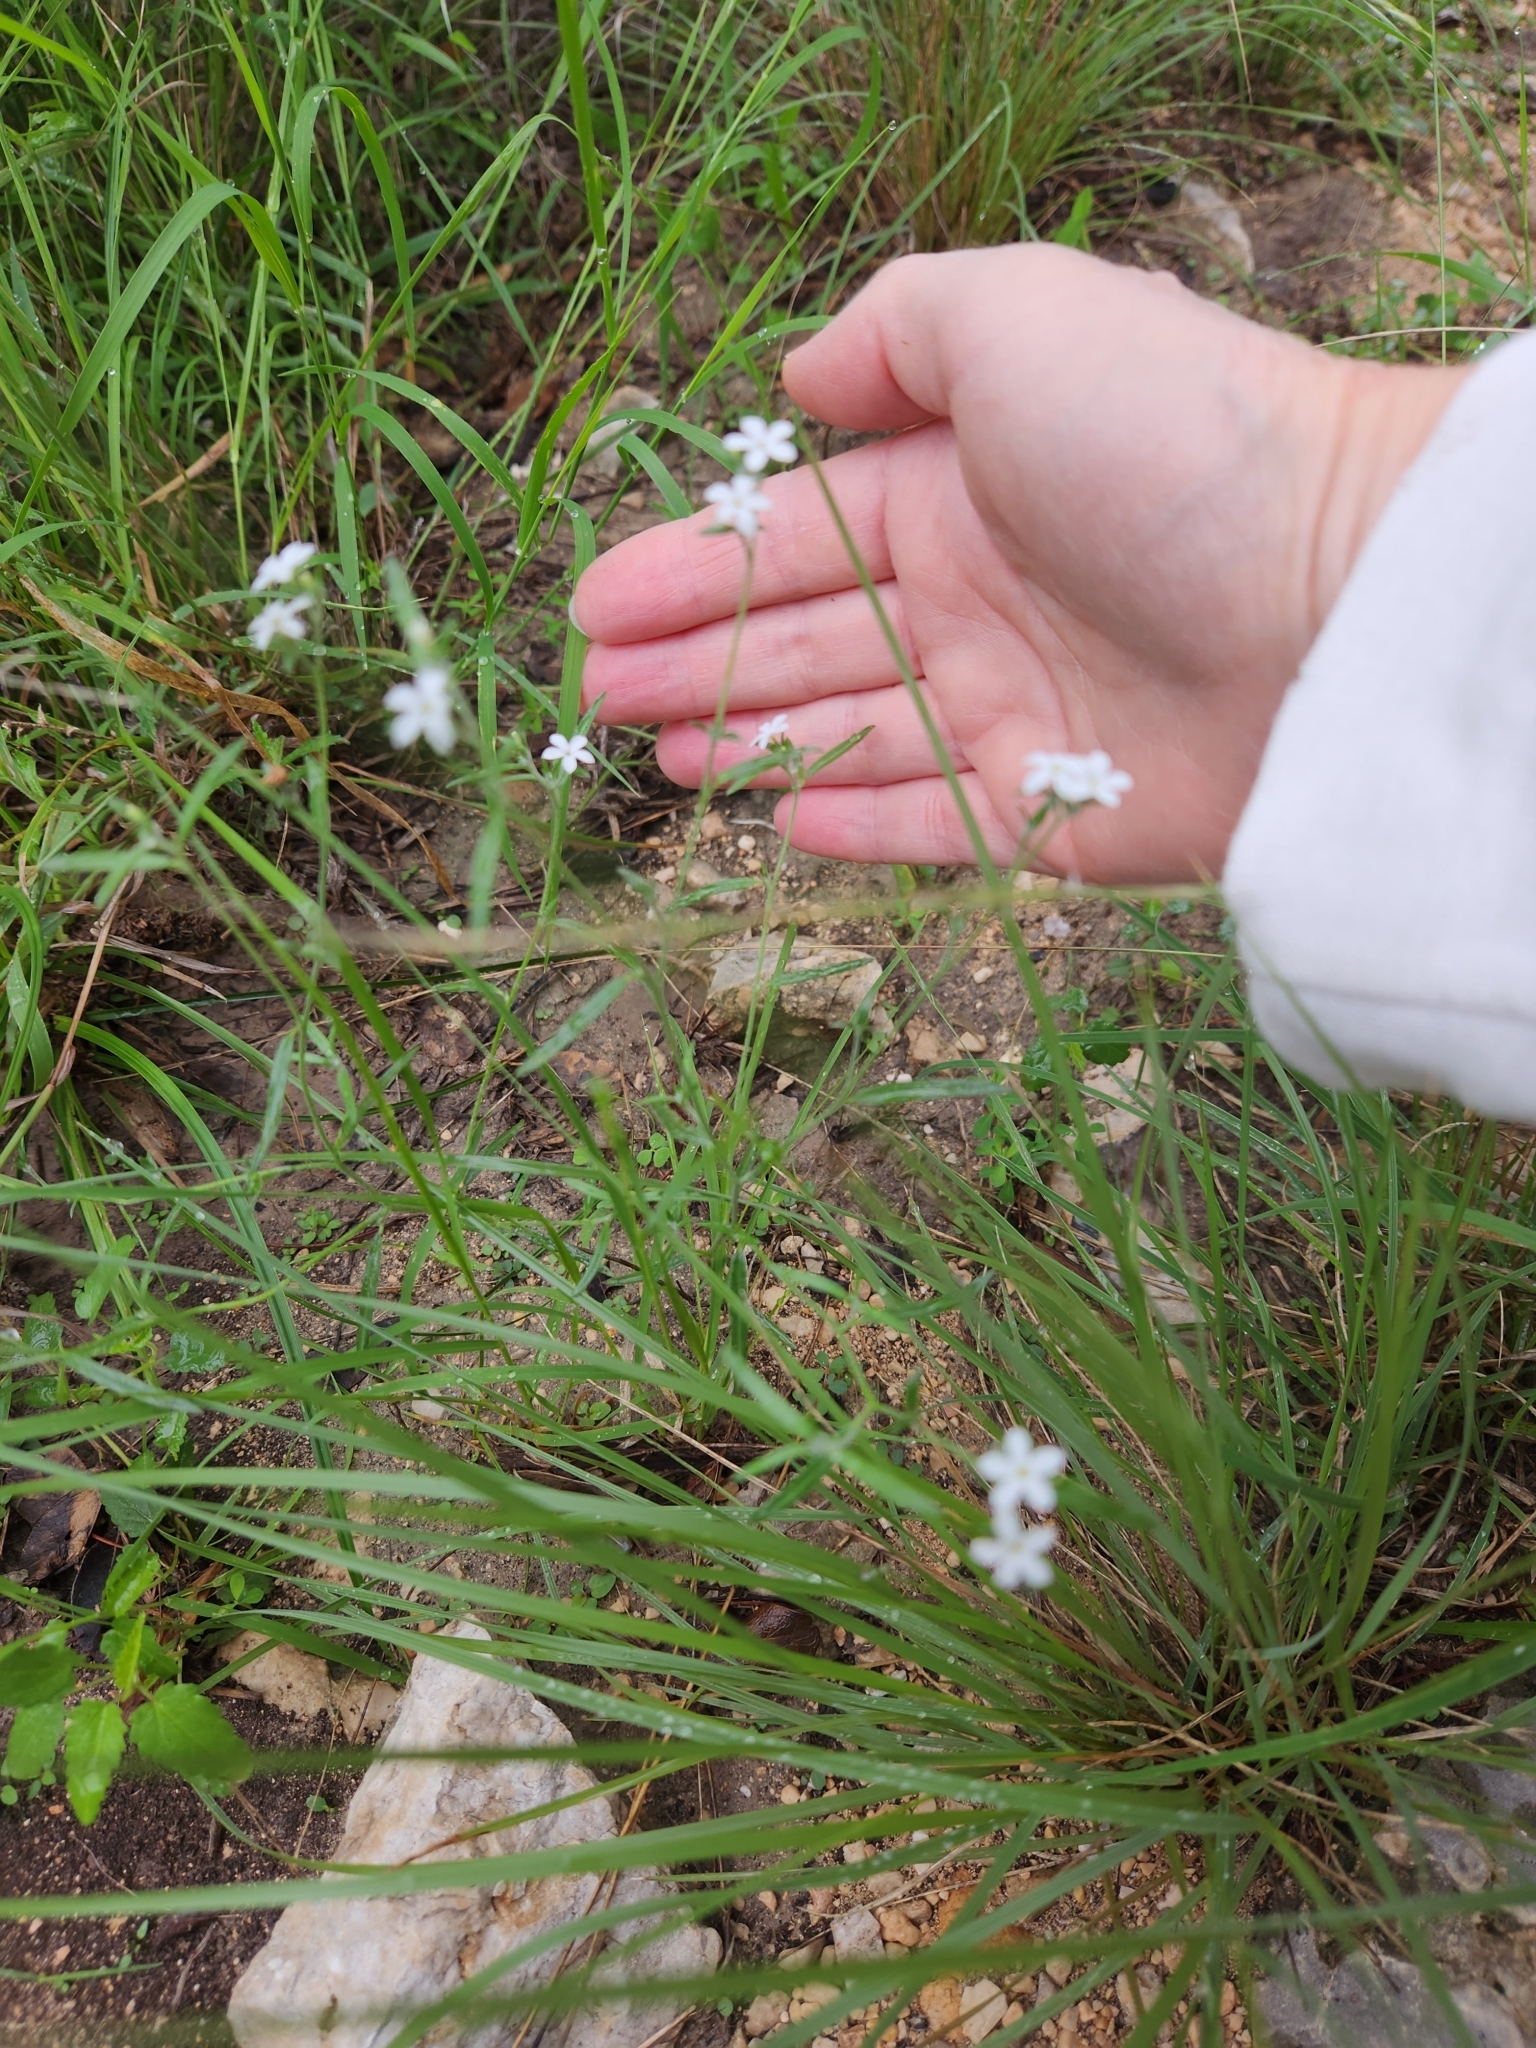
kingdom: Plantae
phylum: Tracheophyta
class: Magnoliopsida
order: Boraginales
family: Heliotropiaceae
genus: Euploca
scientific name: Euploca tenella
